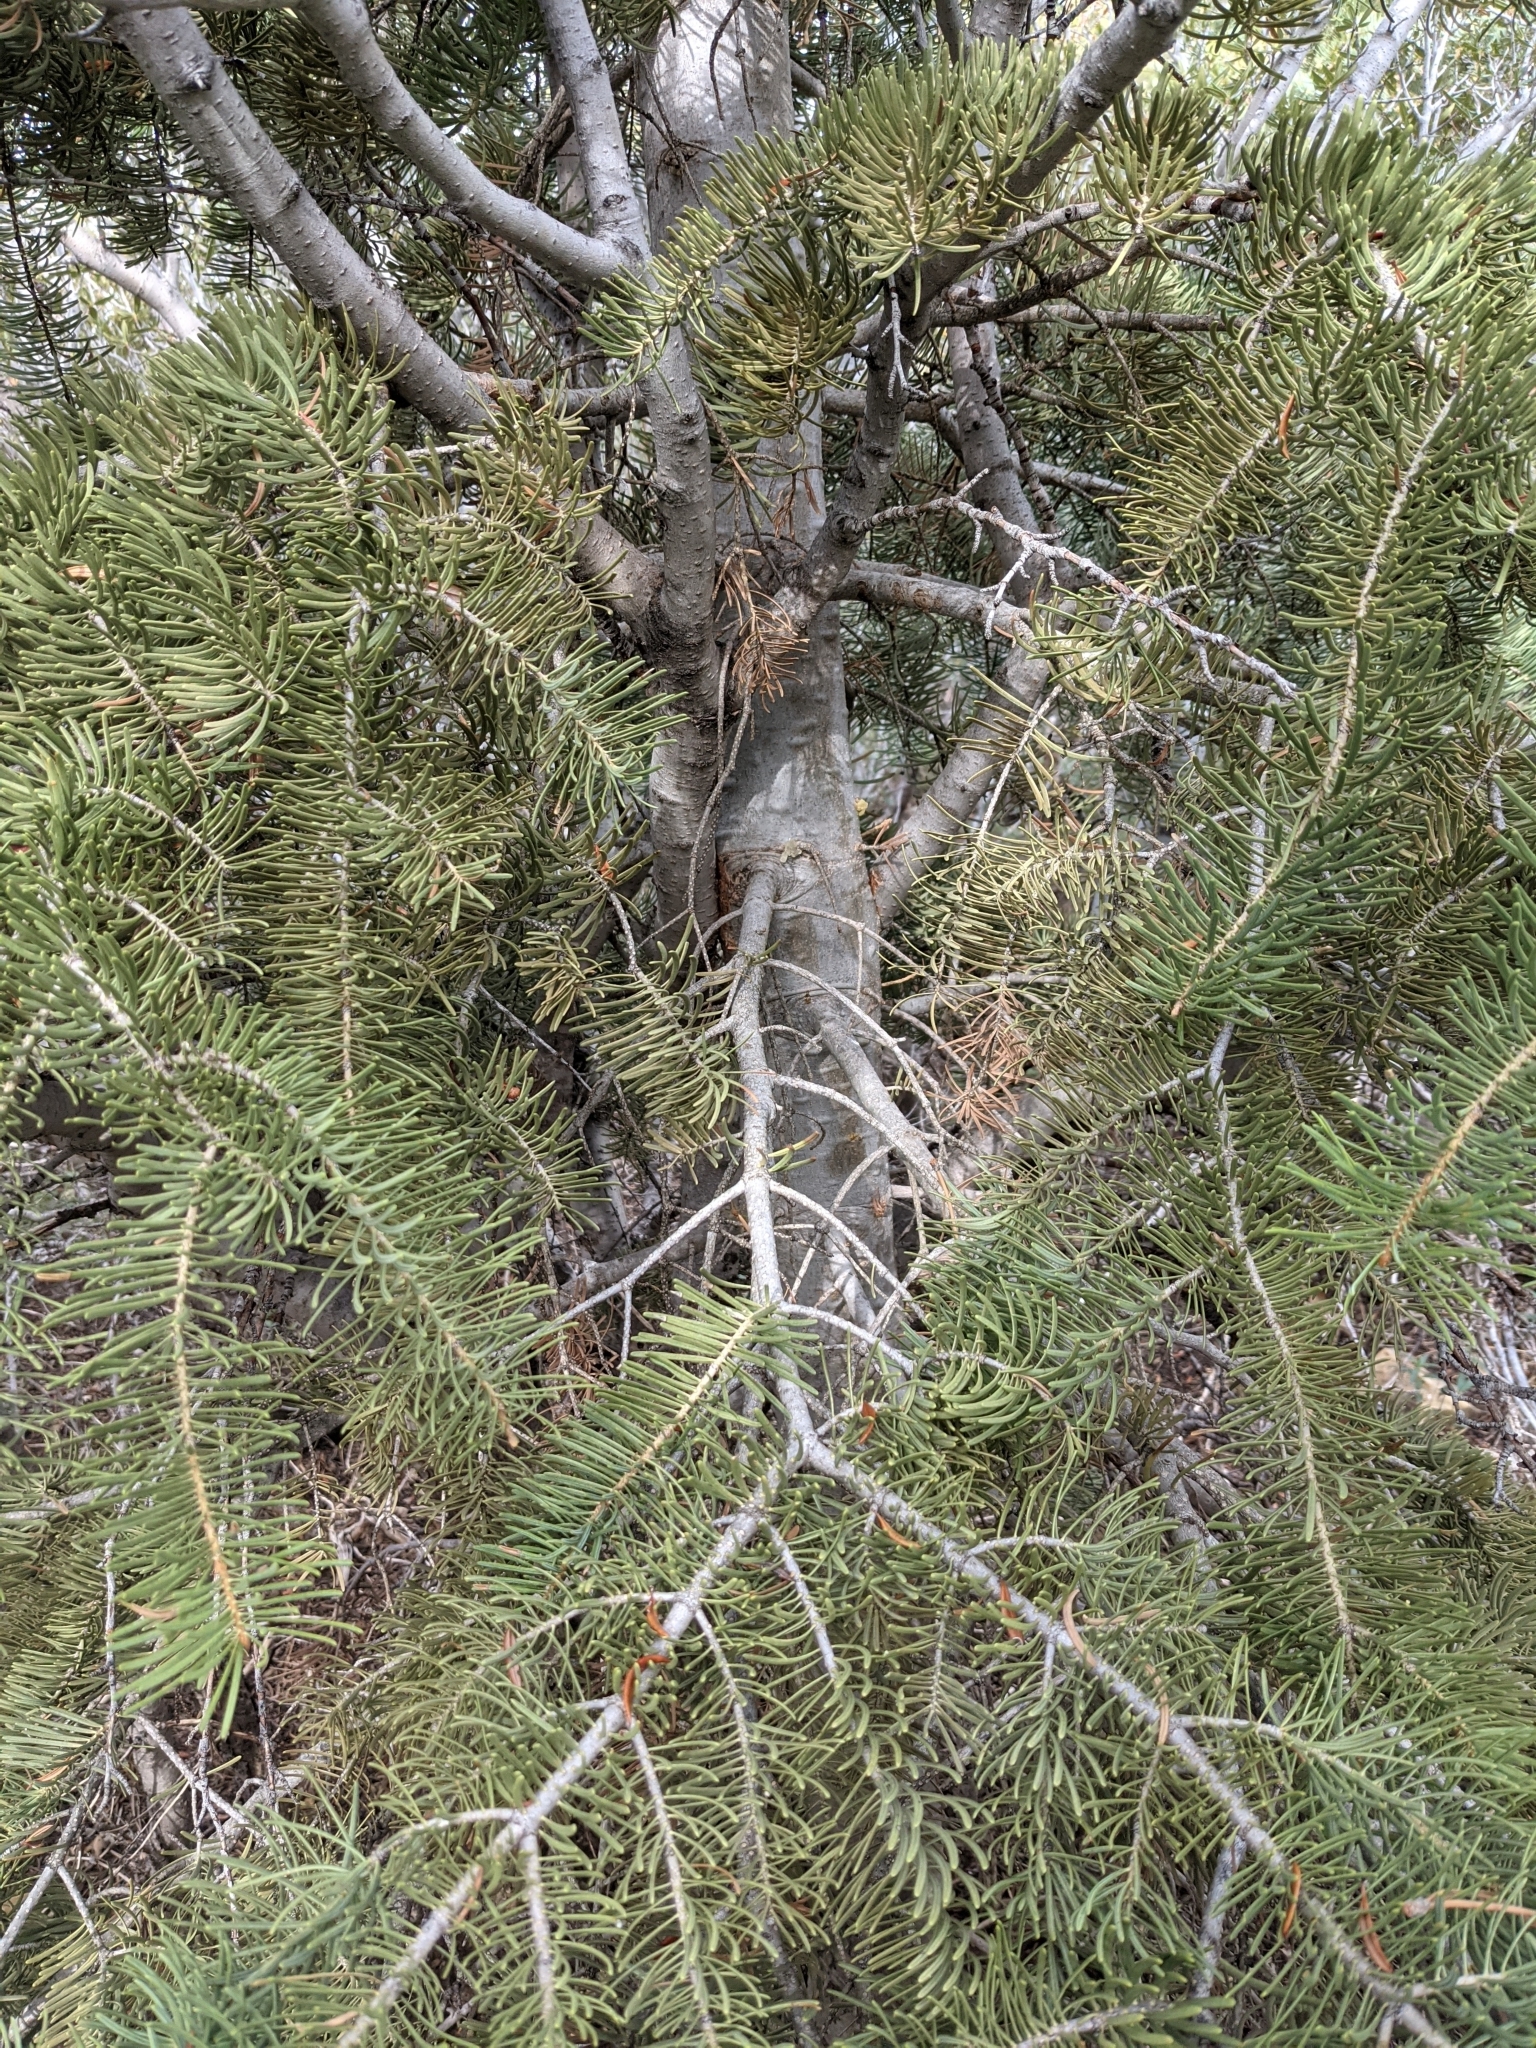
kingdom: Plantae
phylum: Tracheophyta
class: Pinopsida
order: Pinales
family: Pinaceae
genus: Abies
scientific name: Abies concolor
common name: Colorado fir
